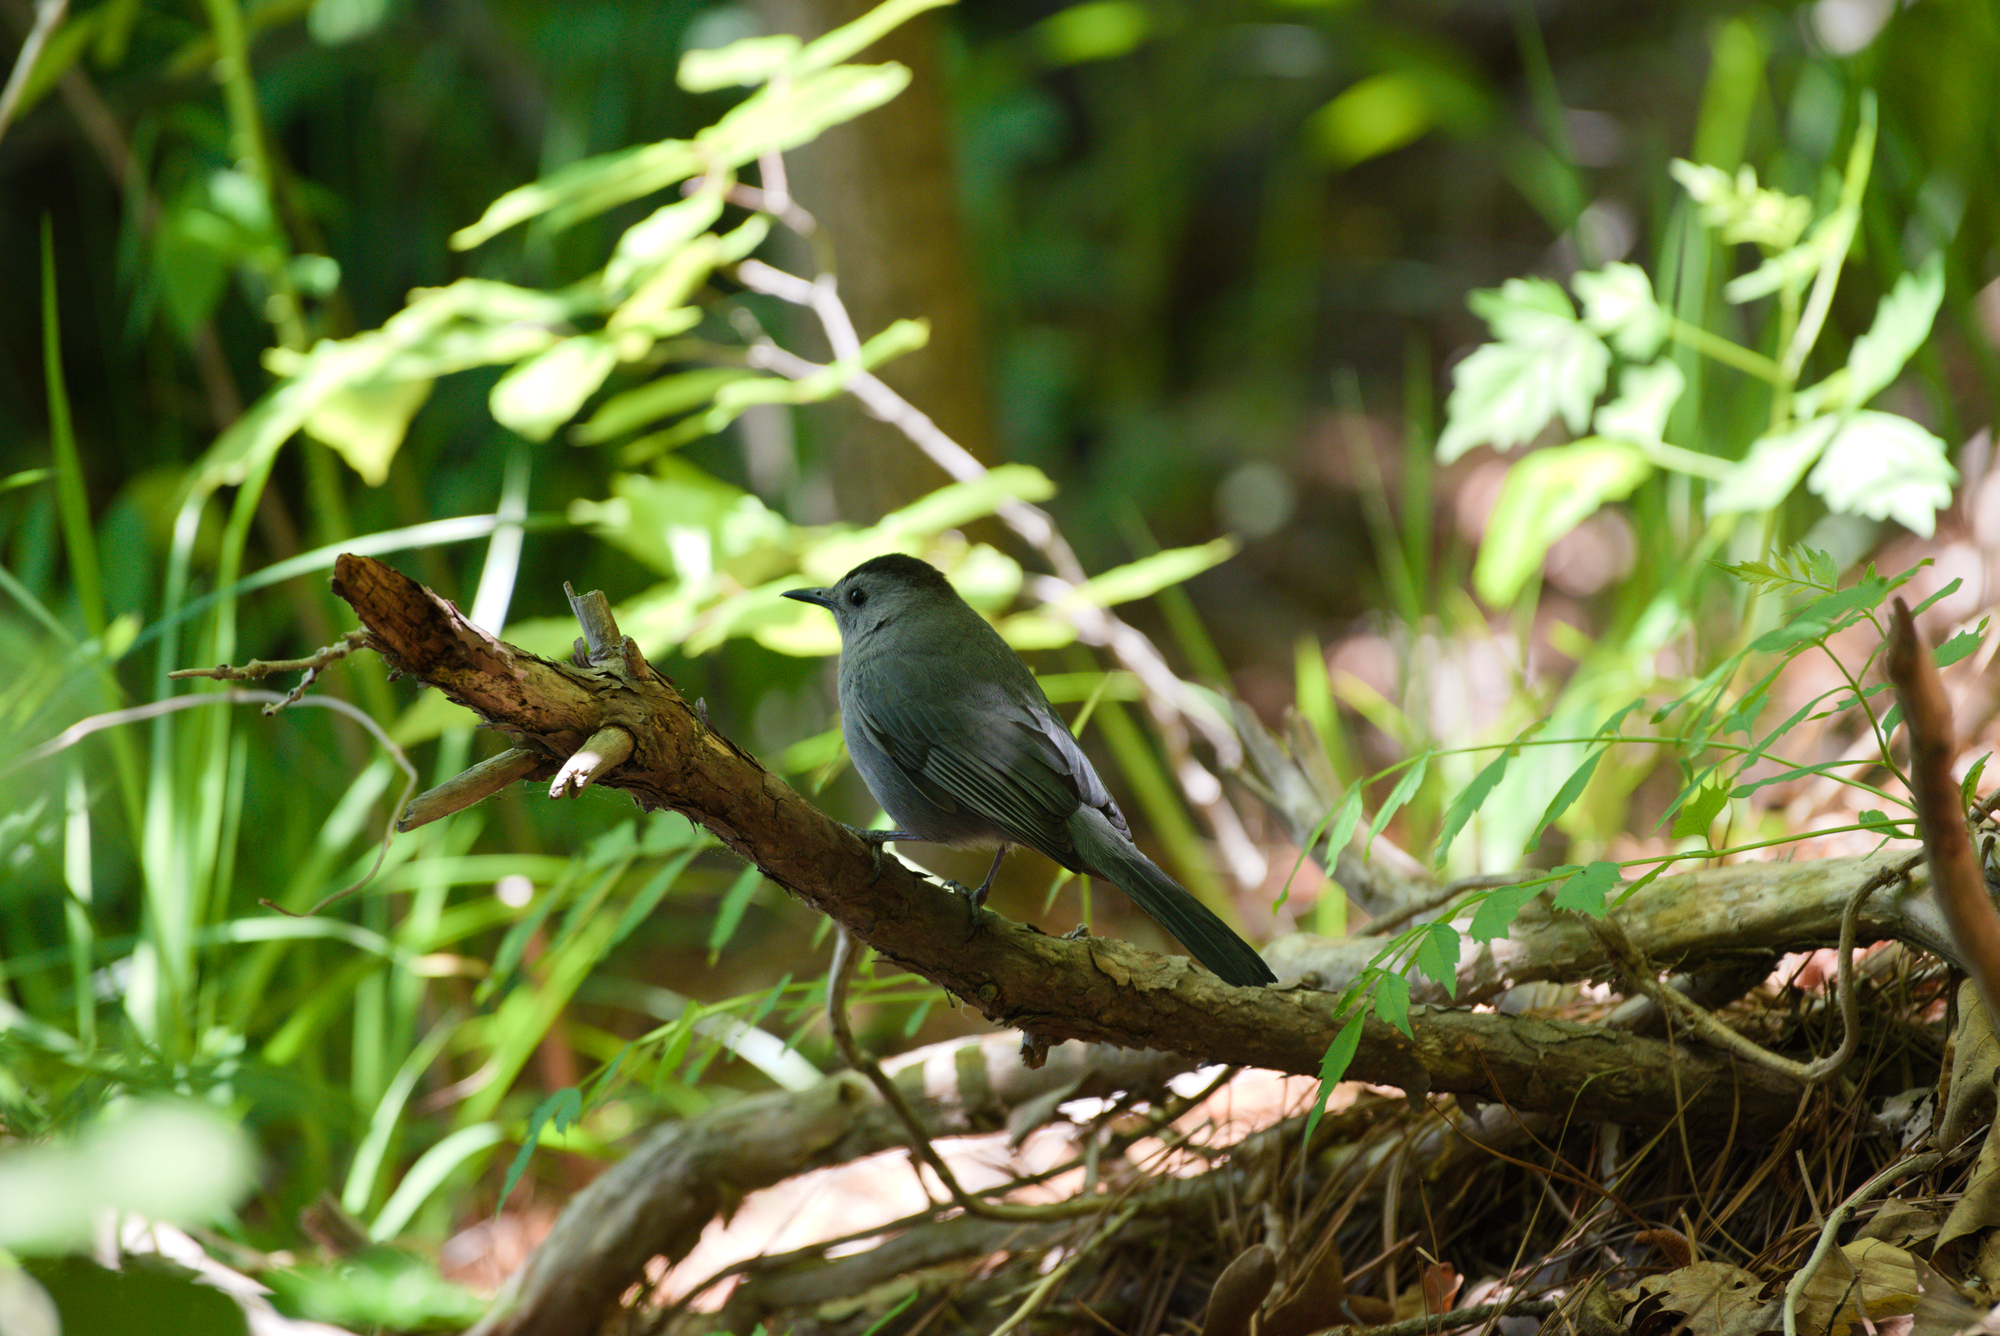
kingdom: Animalia
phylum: Chordata
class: Aves
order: Passeriformes
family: Mimidae
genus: Dumetella
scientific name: Dumetella carolinensis
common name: Gray catbird
